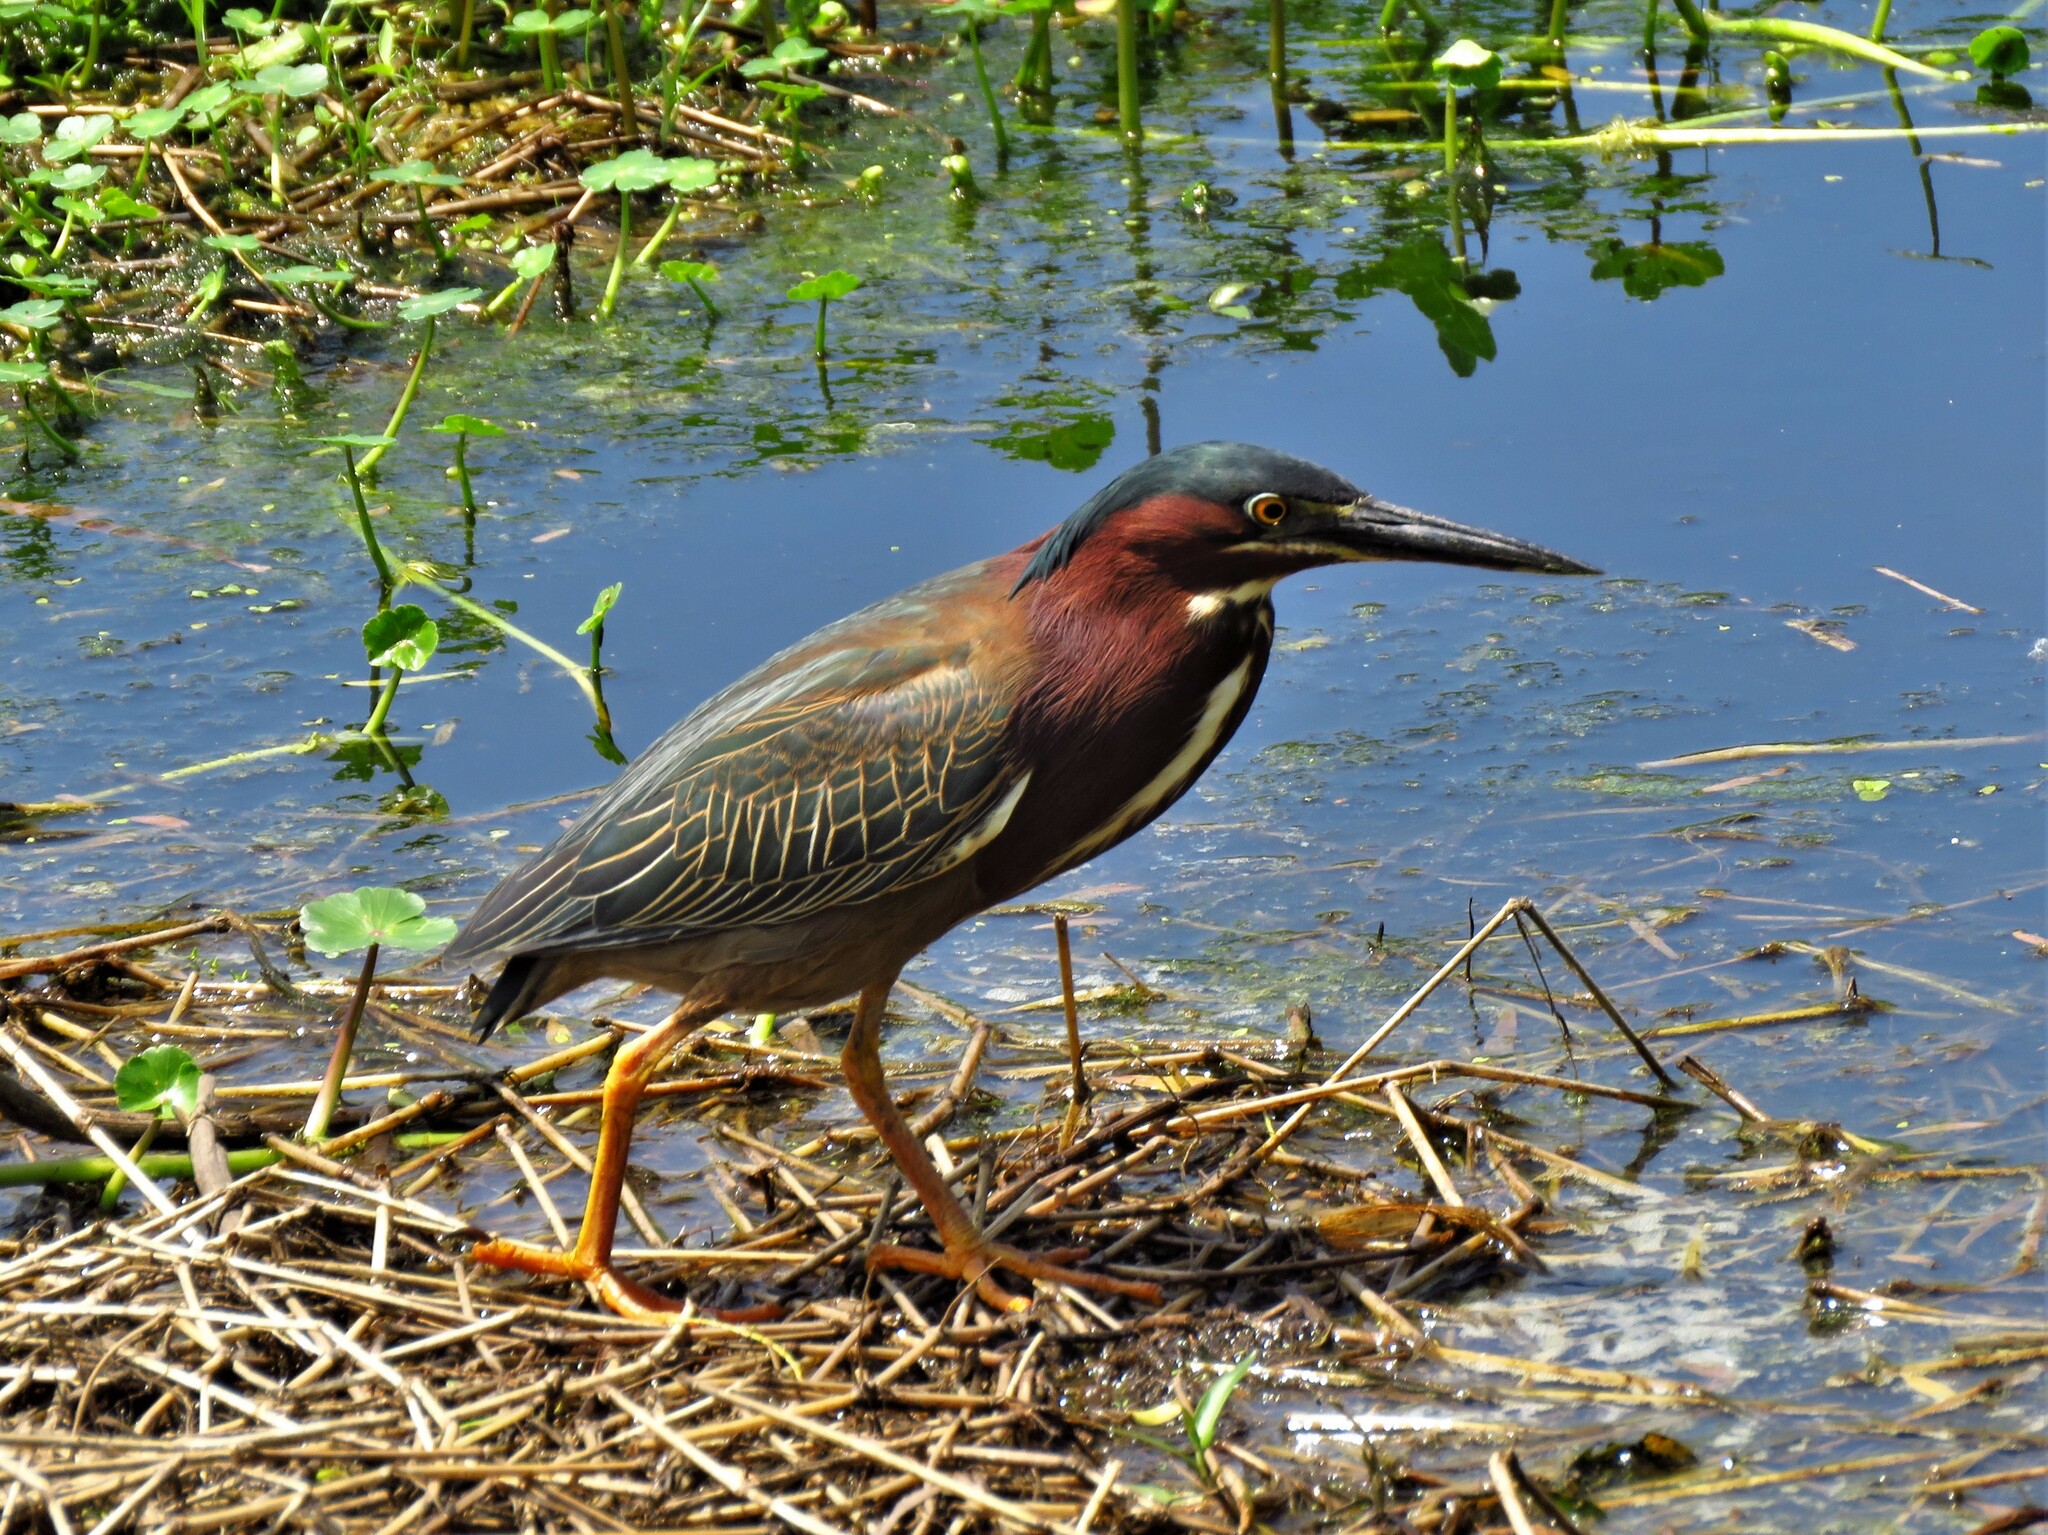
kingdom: Animalia
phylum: Chordata
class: Aves
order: Pelecaniformes
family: Ardeidae
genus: Butorides
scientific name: Butorides virescens
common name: Green heron
